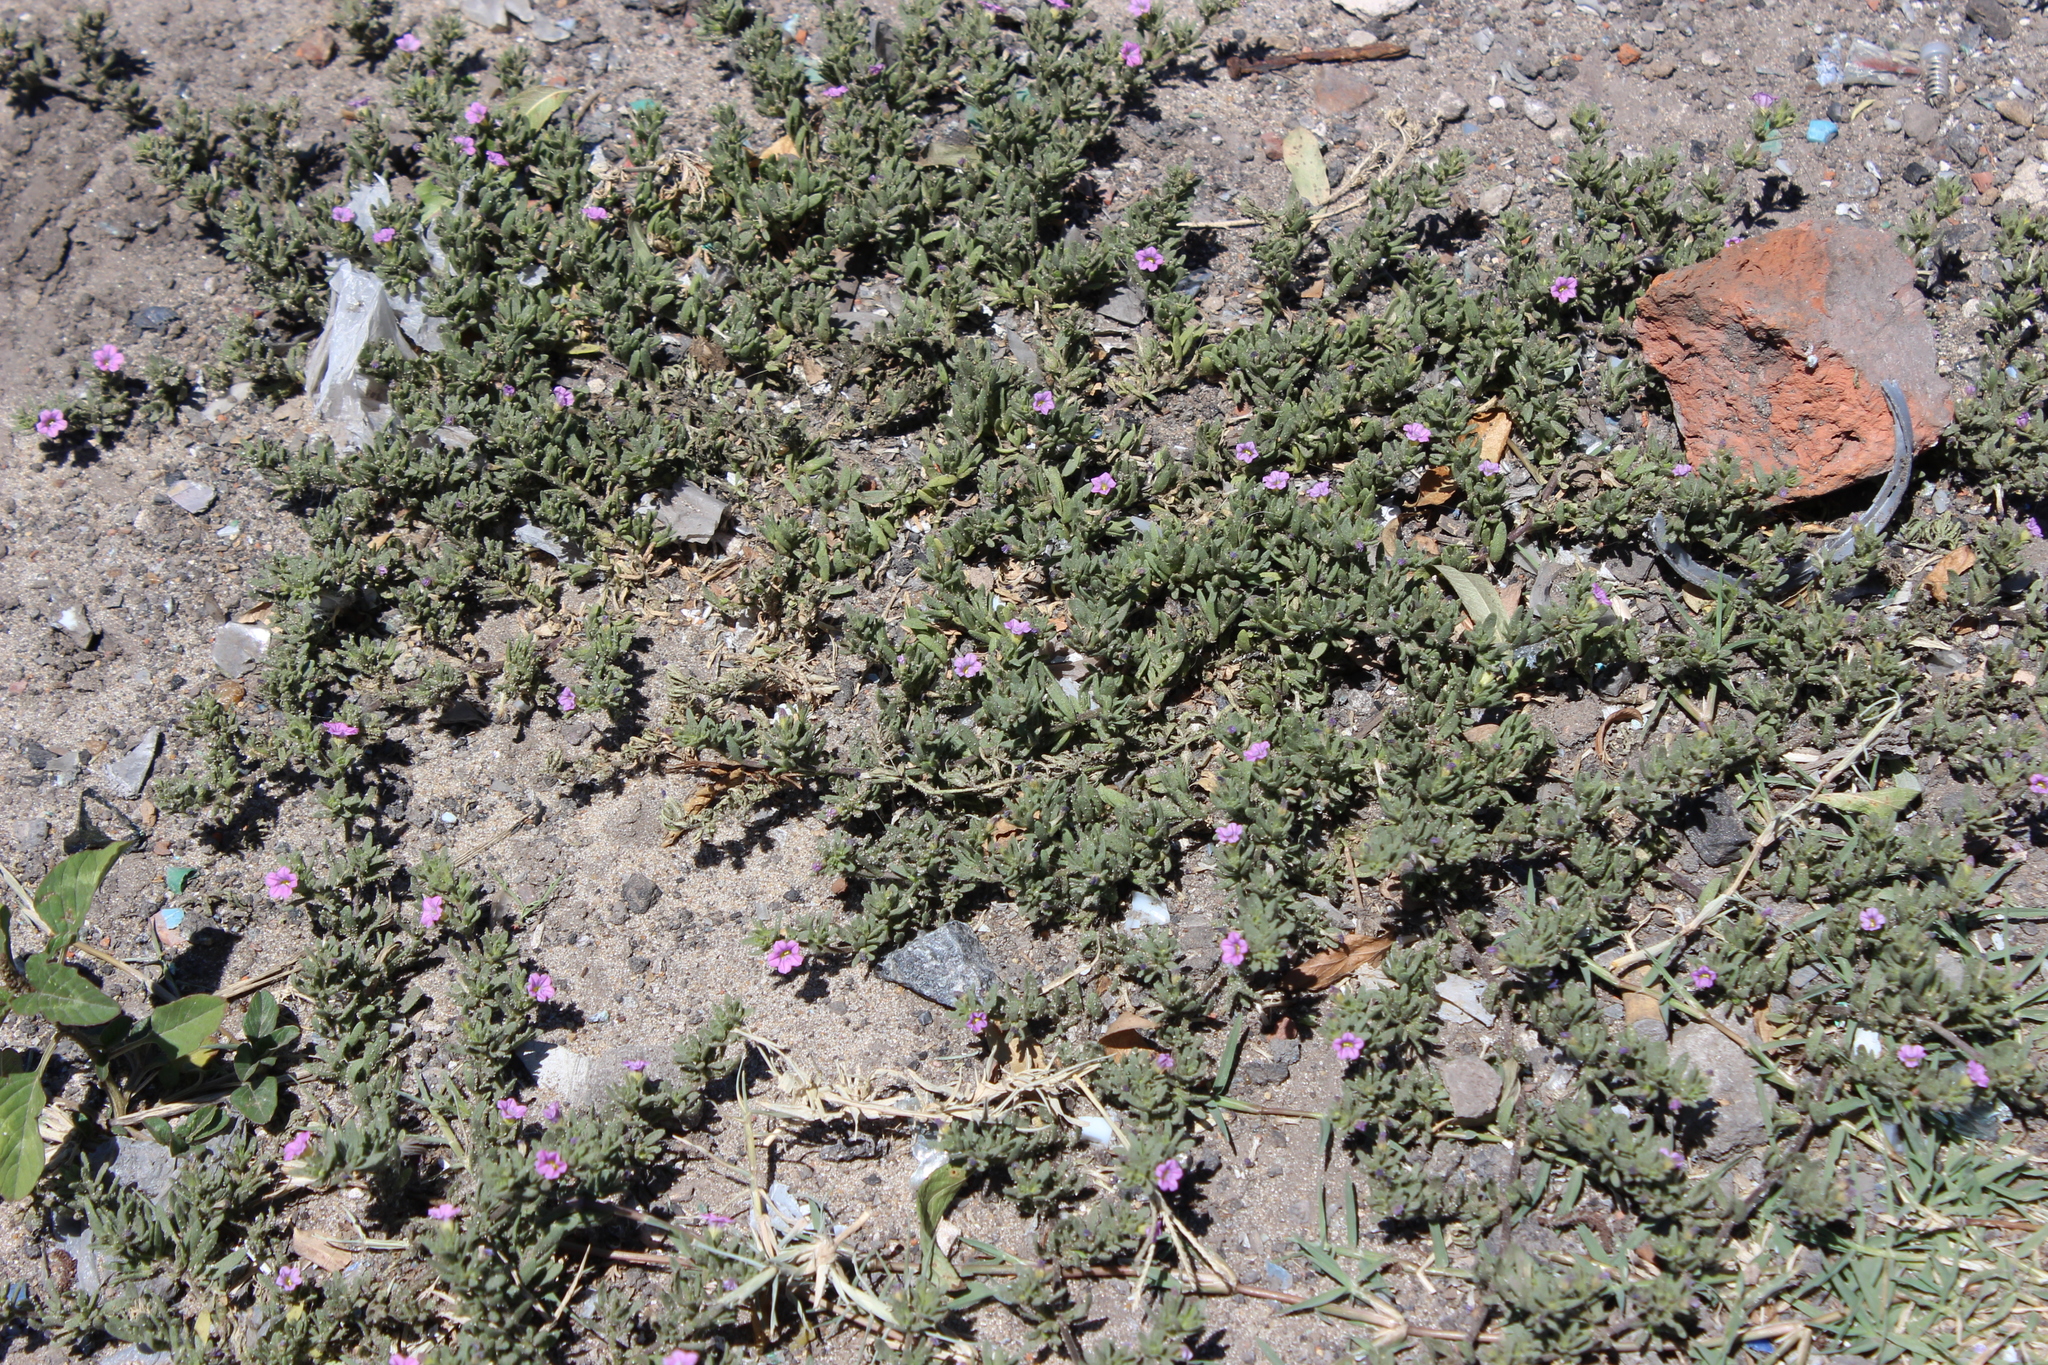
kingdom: Plantae
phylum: Tracheophyta
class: Magnoliopsida
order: Solanales
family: Solanaceae
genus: Calibrachoa
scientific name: Calibrachoa parviflora
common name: Seaside petunia
